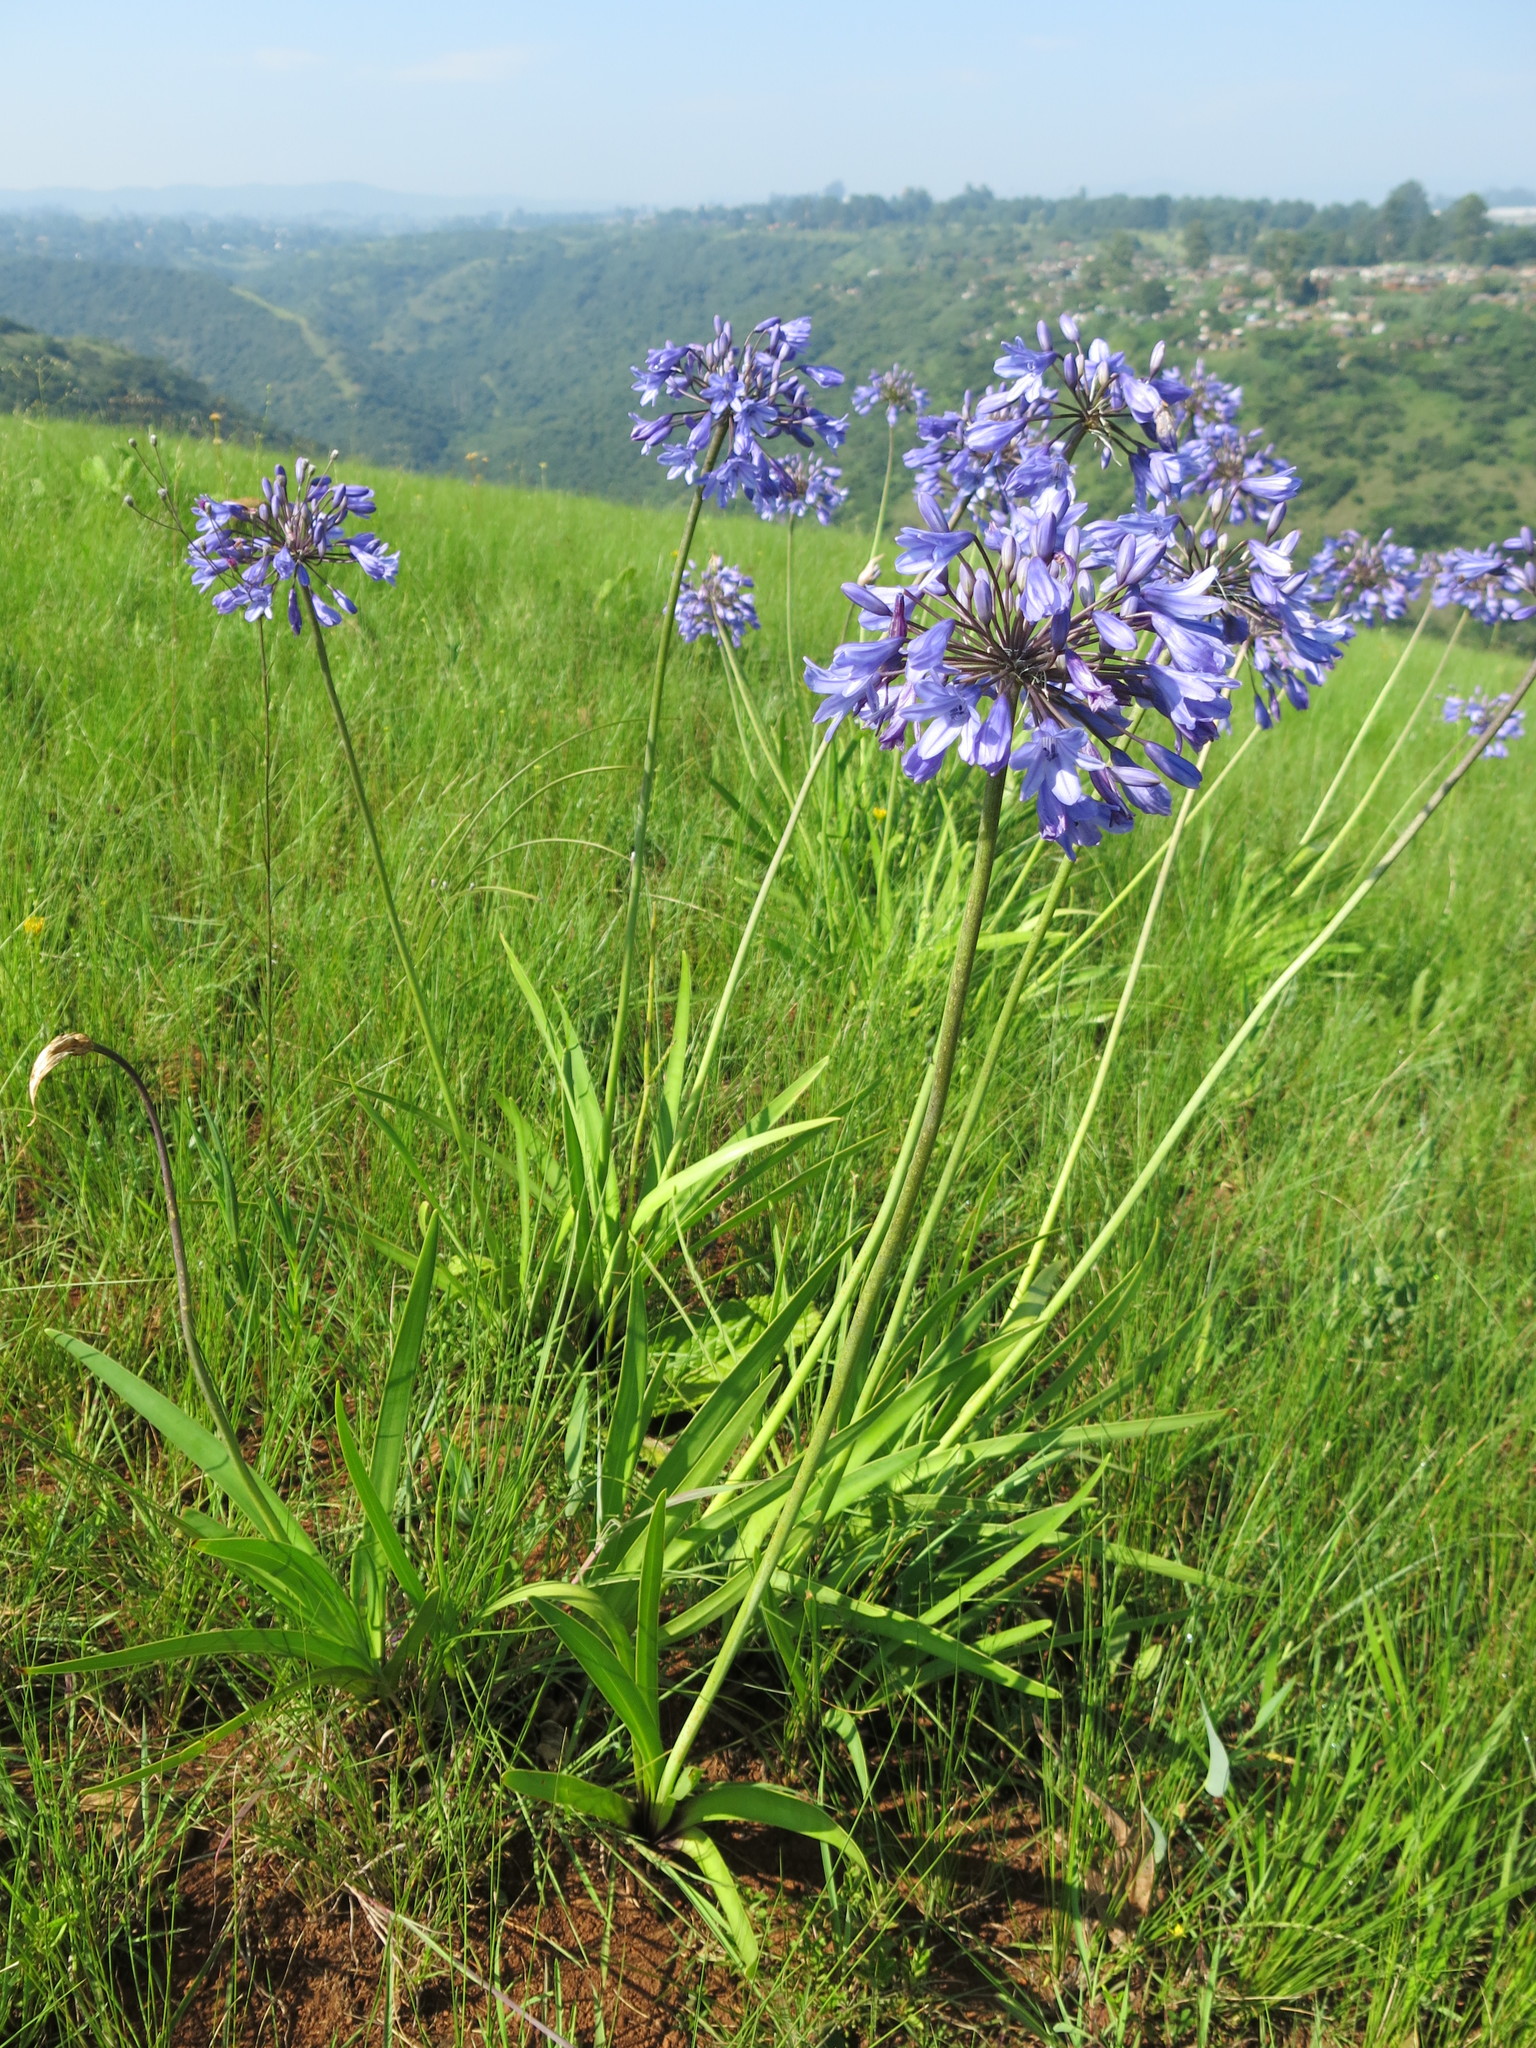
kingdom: Plantae
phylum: Tracheophyta
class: Liliopsida
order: Asparagales
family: Amaryllidaceae
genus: Agapanthus
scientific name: Agapanthus campanulatus
